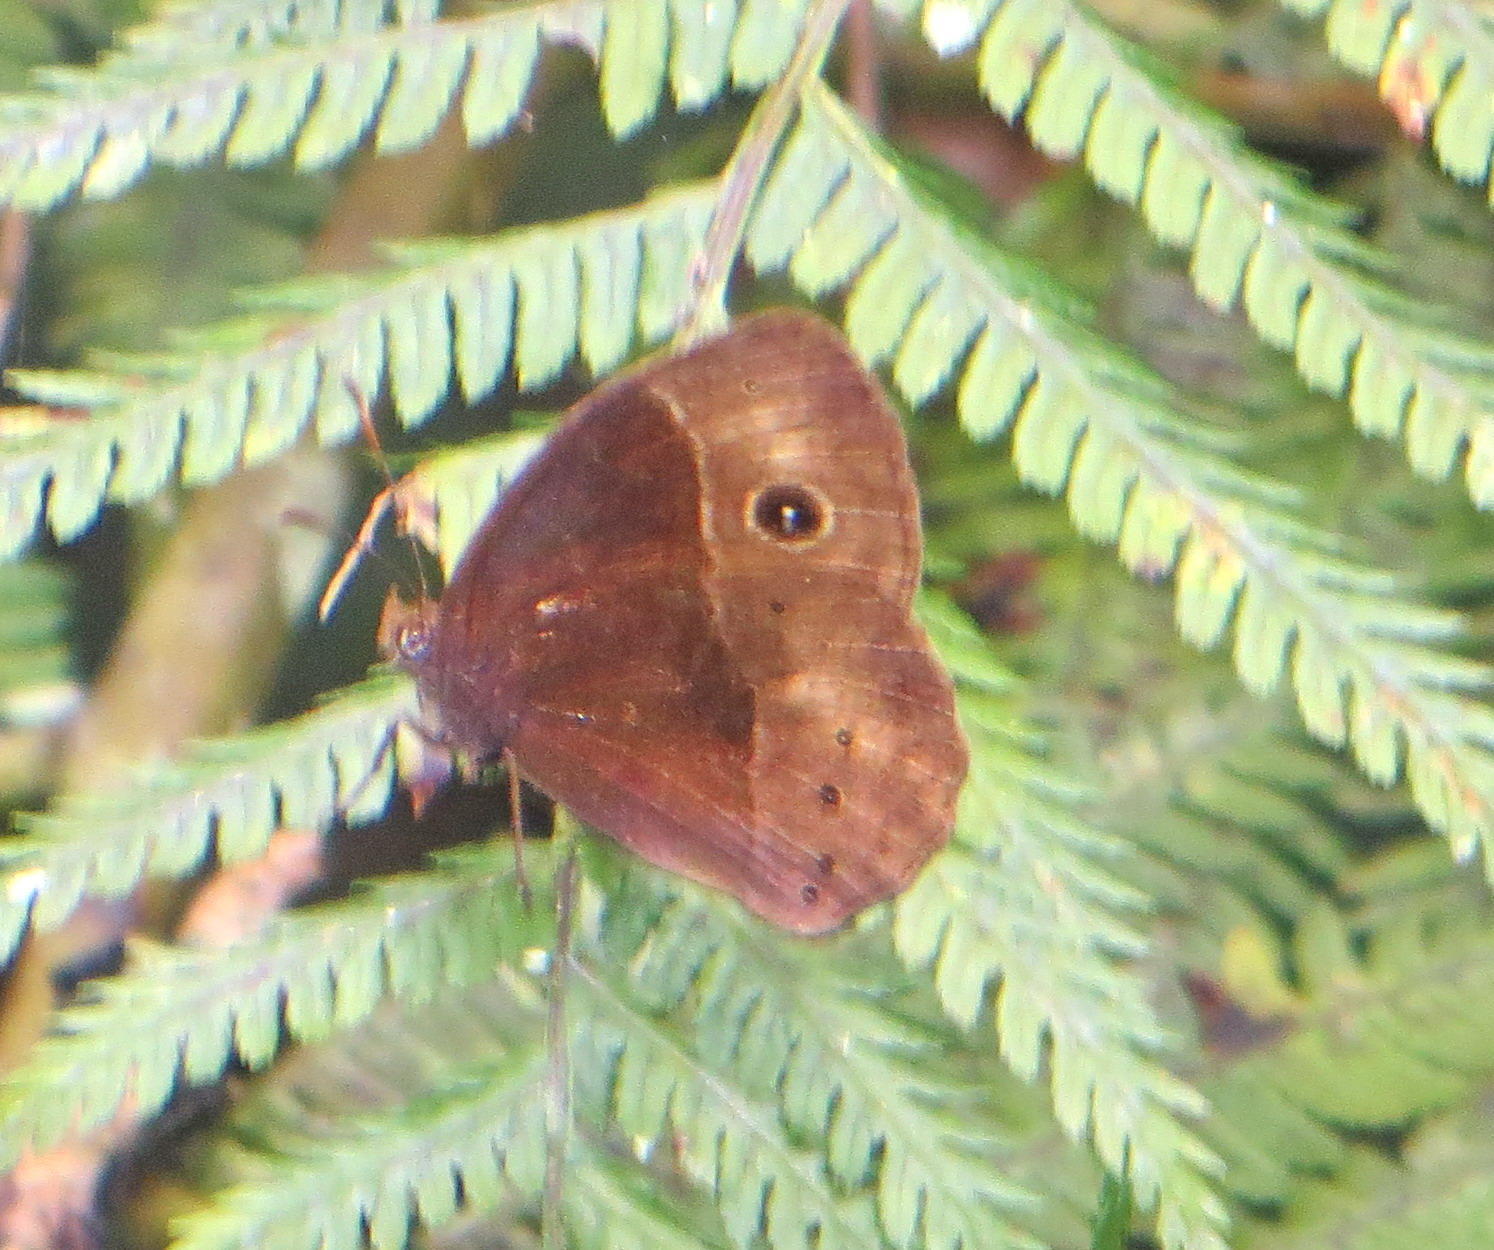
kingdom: Animalia
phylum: Arthropoda
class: Insecta
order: Lepidoptera
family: Nymphalidae
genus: Mycalesis
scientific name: Mycalesis rhacotis
